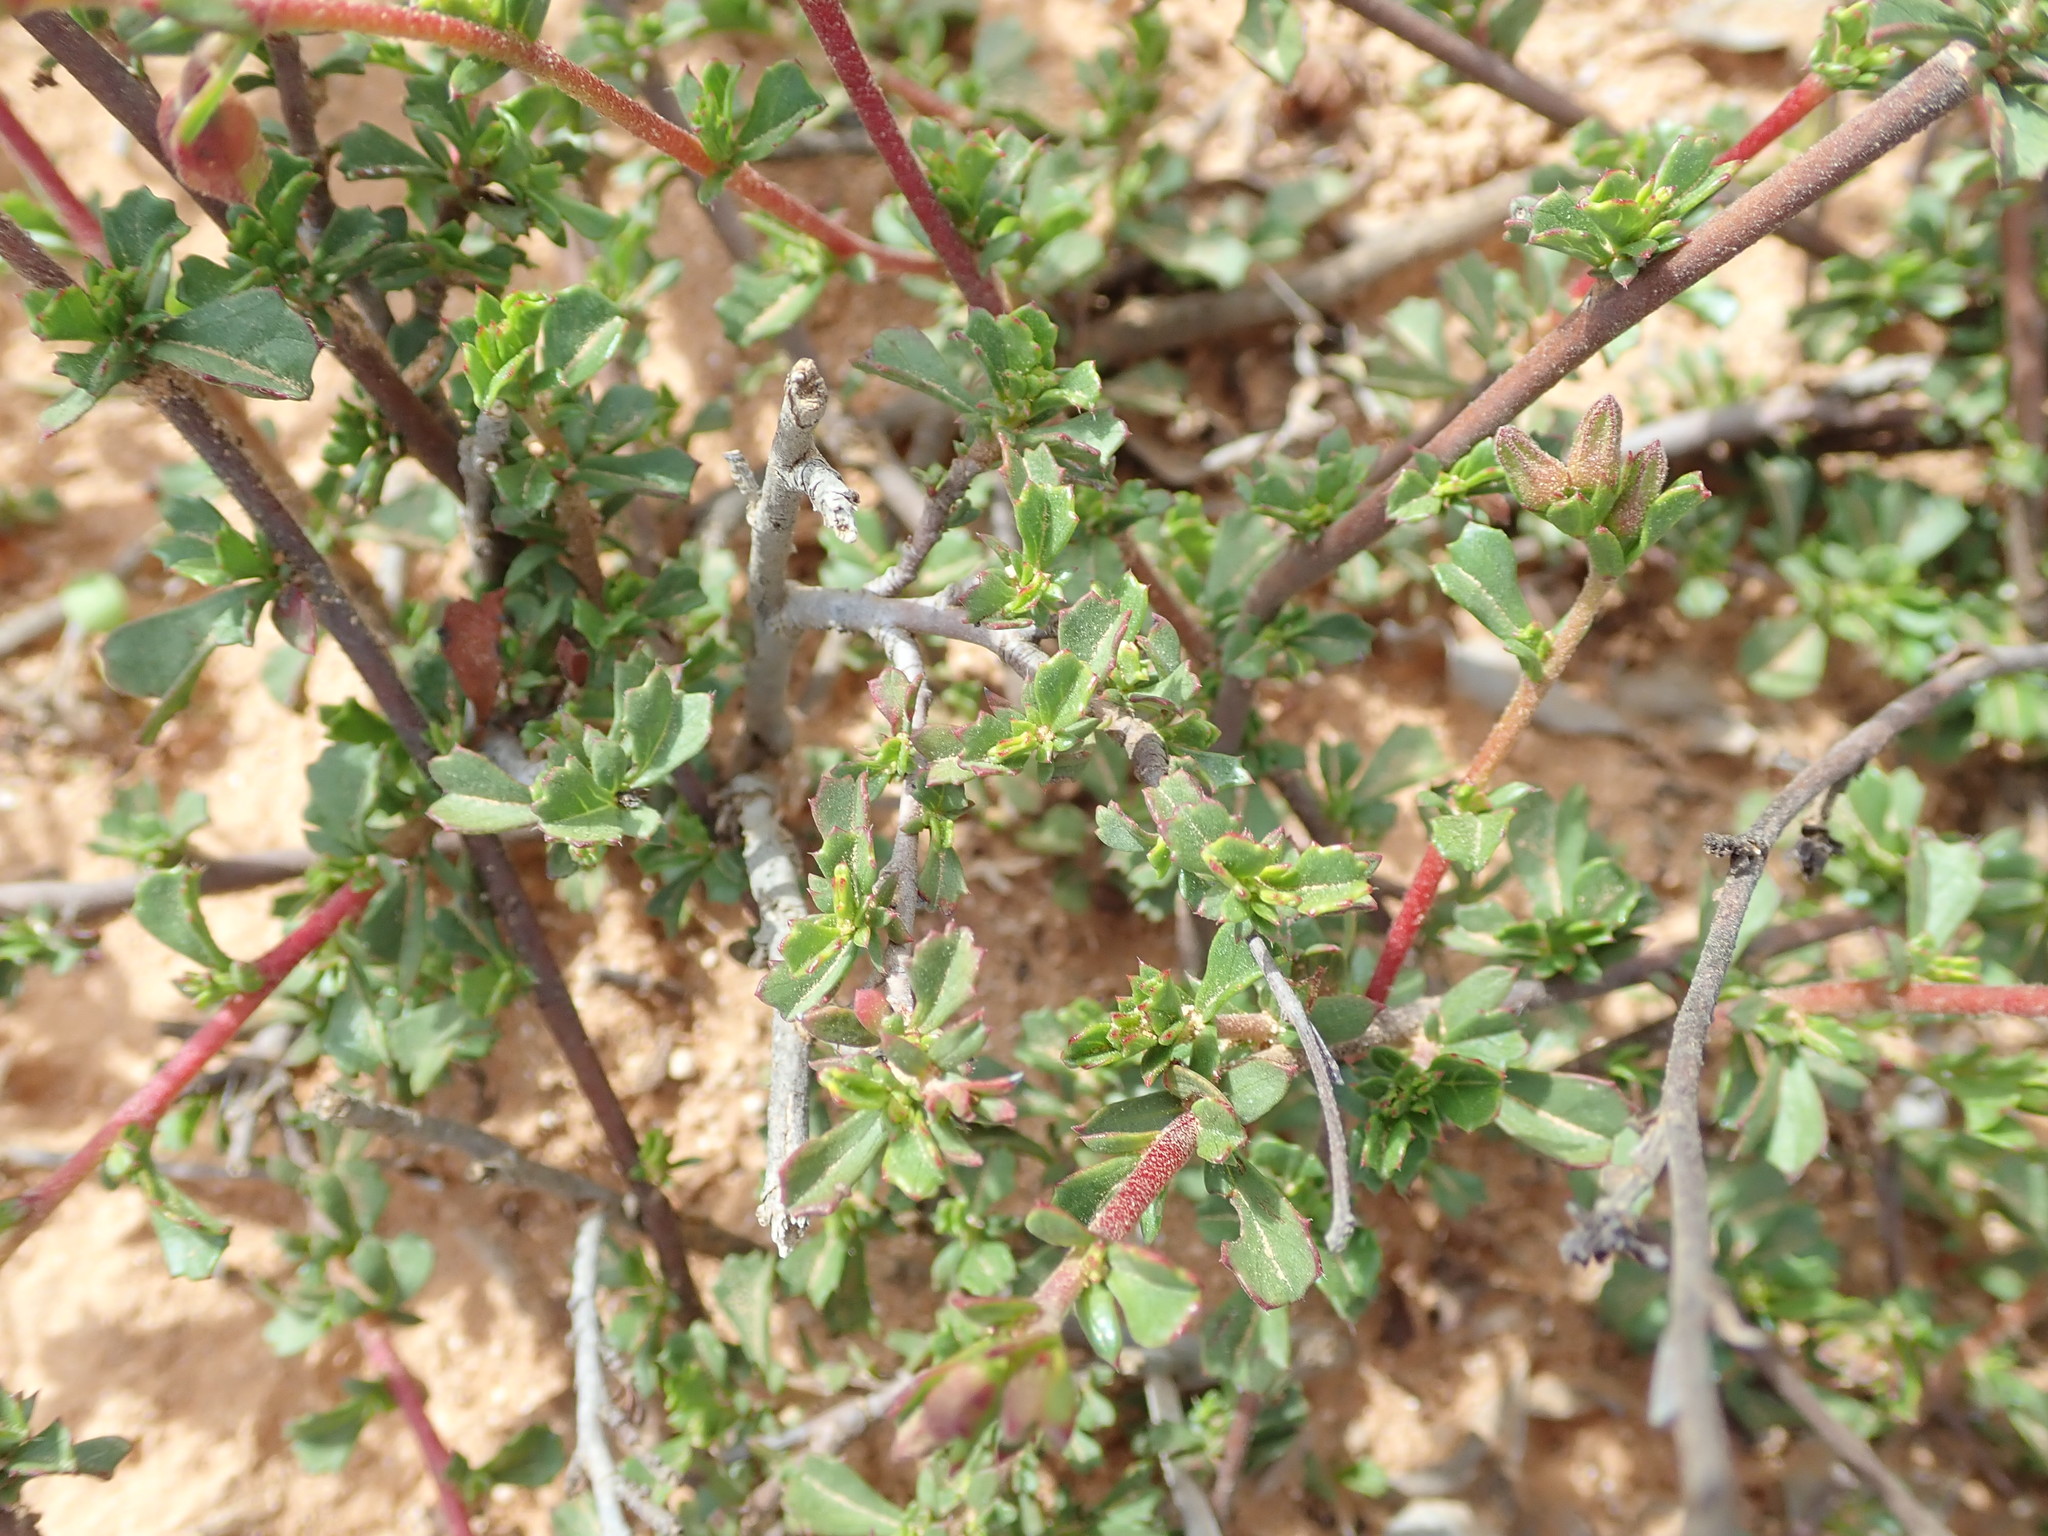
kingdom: Plantae
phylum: Tracheophyta
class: Magnoliopsida
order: Malvales
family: Malvaceae
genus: Hermannia
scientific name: Hermannia flammea
